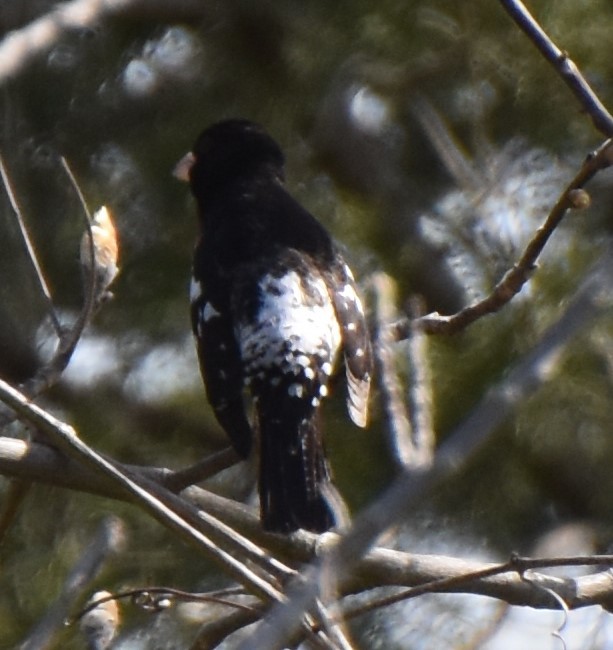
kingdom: Animalia
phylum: Chordata
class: Aves
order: Passeriformes
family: Cardinalidae
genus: Pheucticus
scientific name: Pheucticus ludovicianus
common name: Rose-breasted grosbeak
